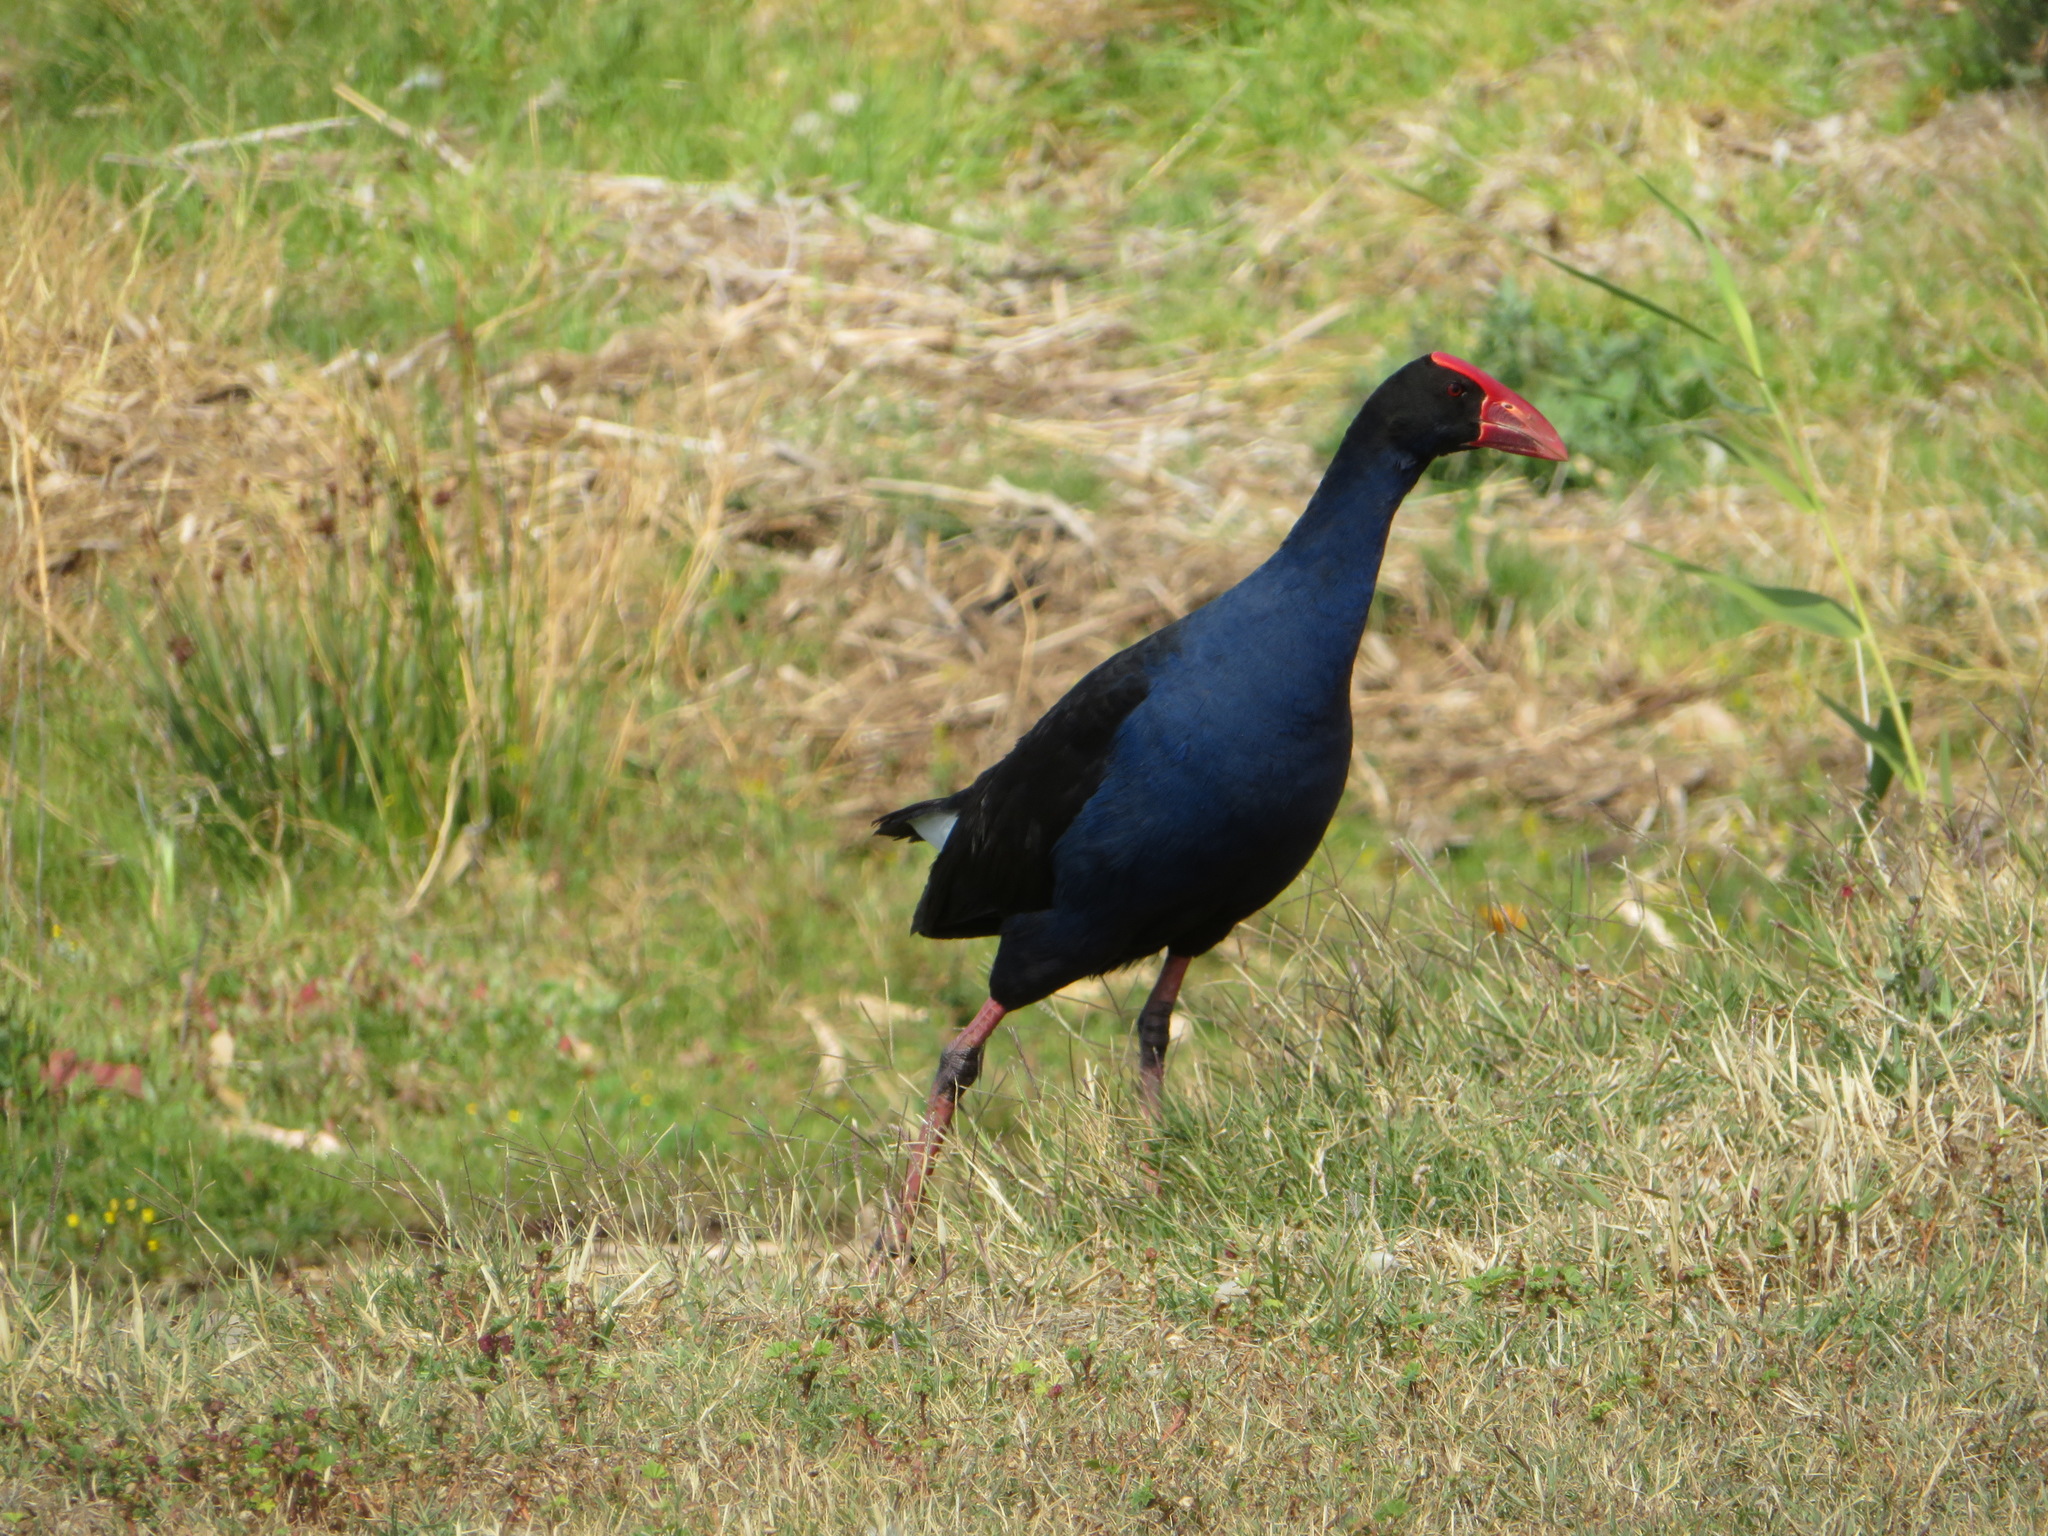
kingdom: Animalia
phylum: Chordata
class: Aves
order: Gruiformes
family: Rallidae
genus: Porphyrio
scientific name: Porphyrio melanotus
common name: Australasian swamphen
